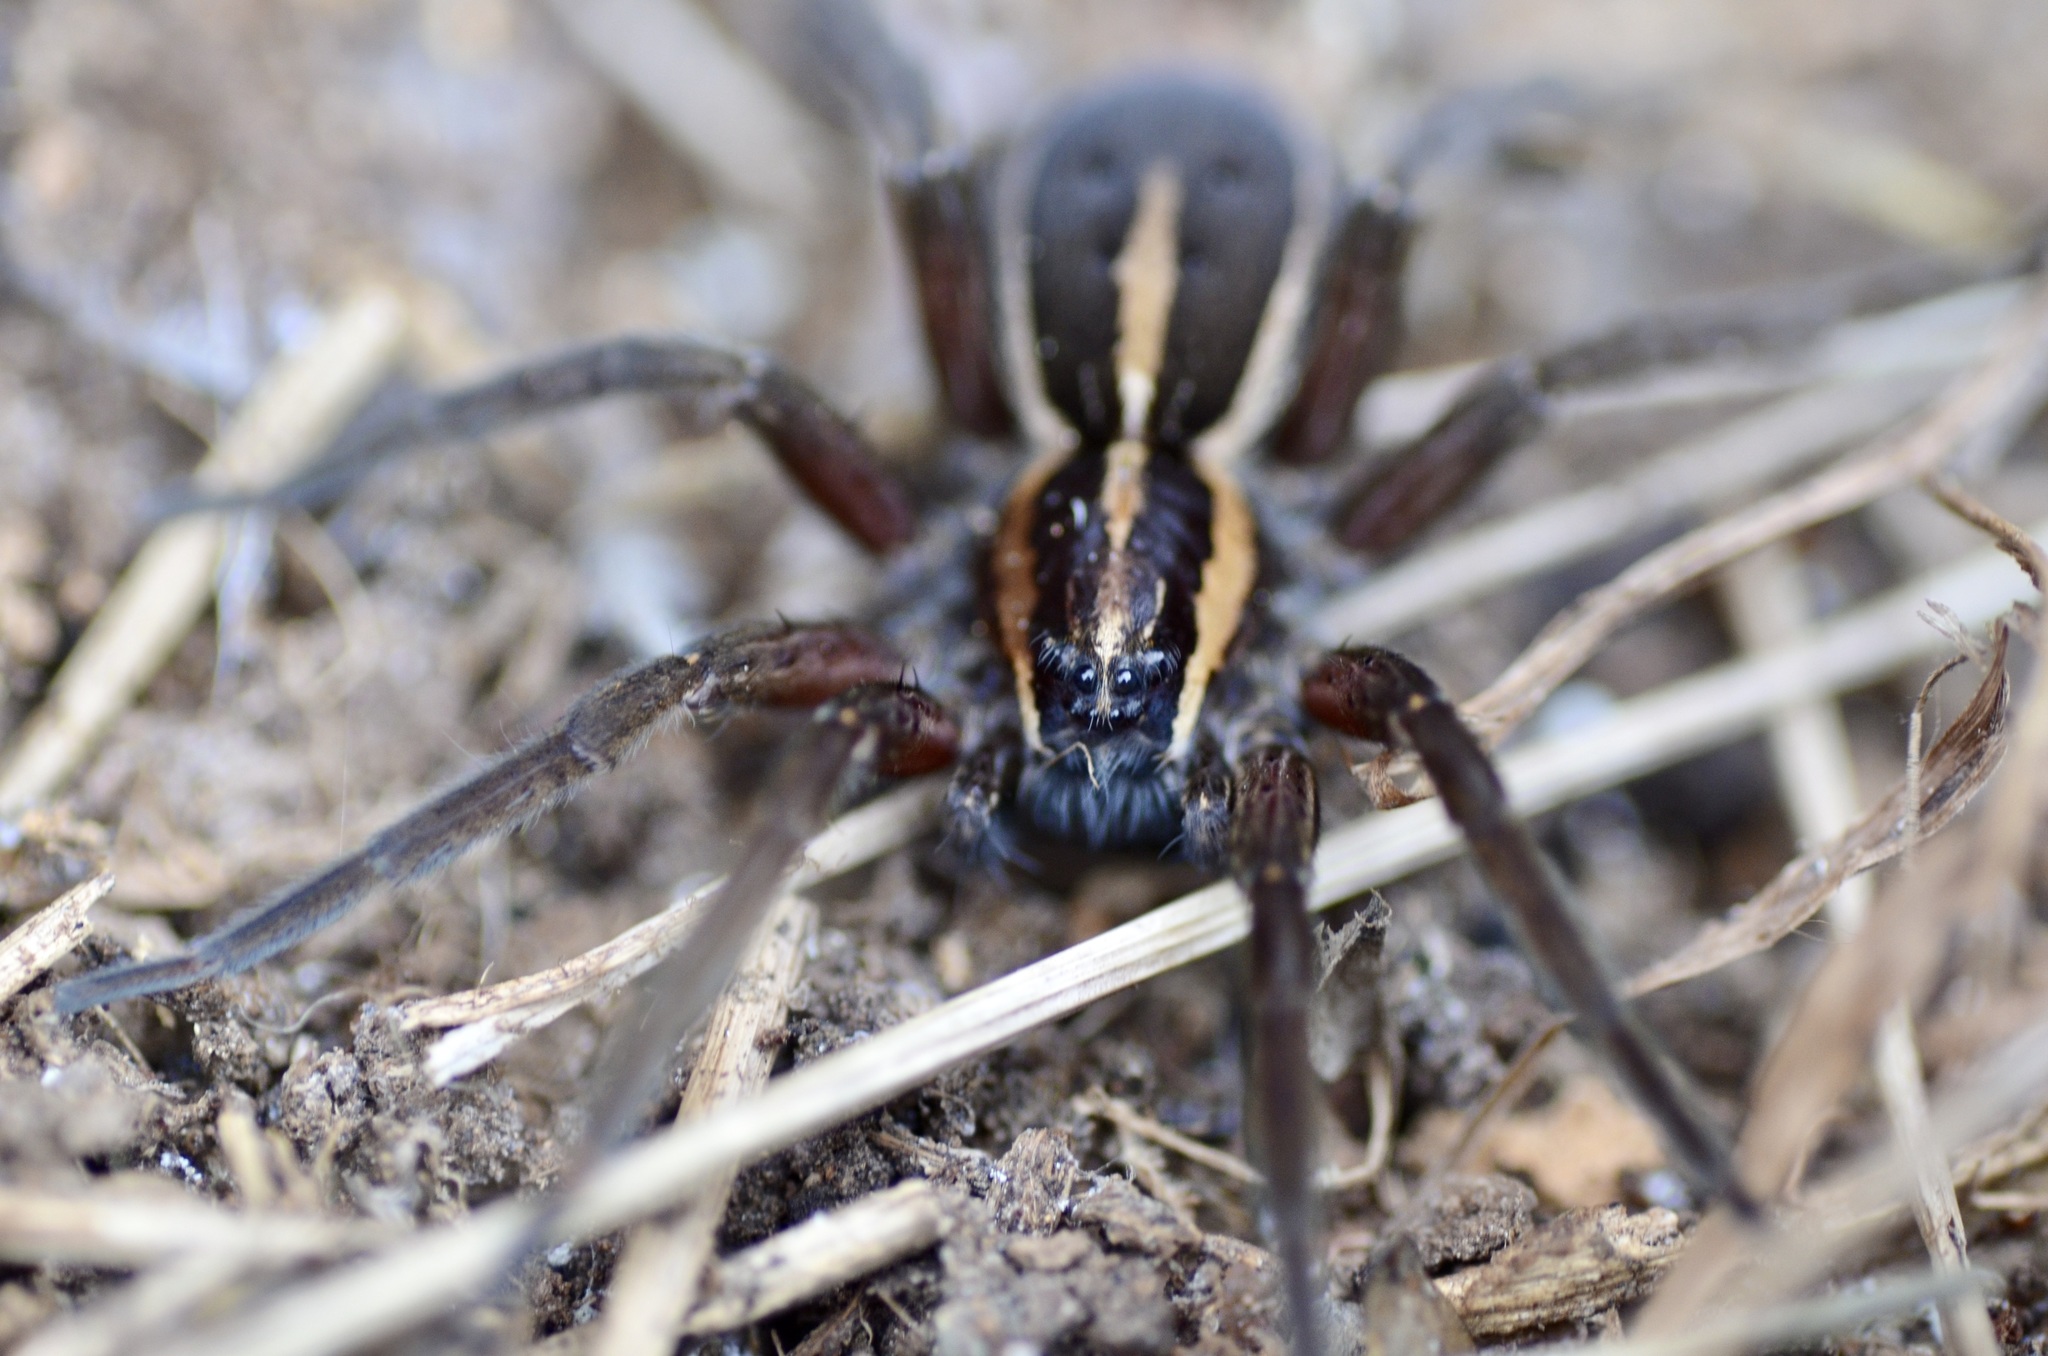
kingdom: Animalia
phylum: Arthropoda
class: Arachnida
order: Araneae
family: Pisauridae
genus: Dolomedes
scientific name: Dolomedes minor
